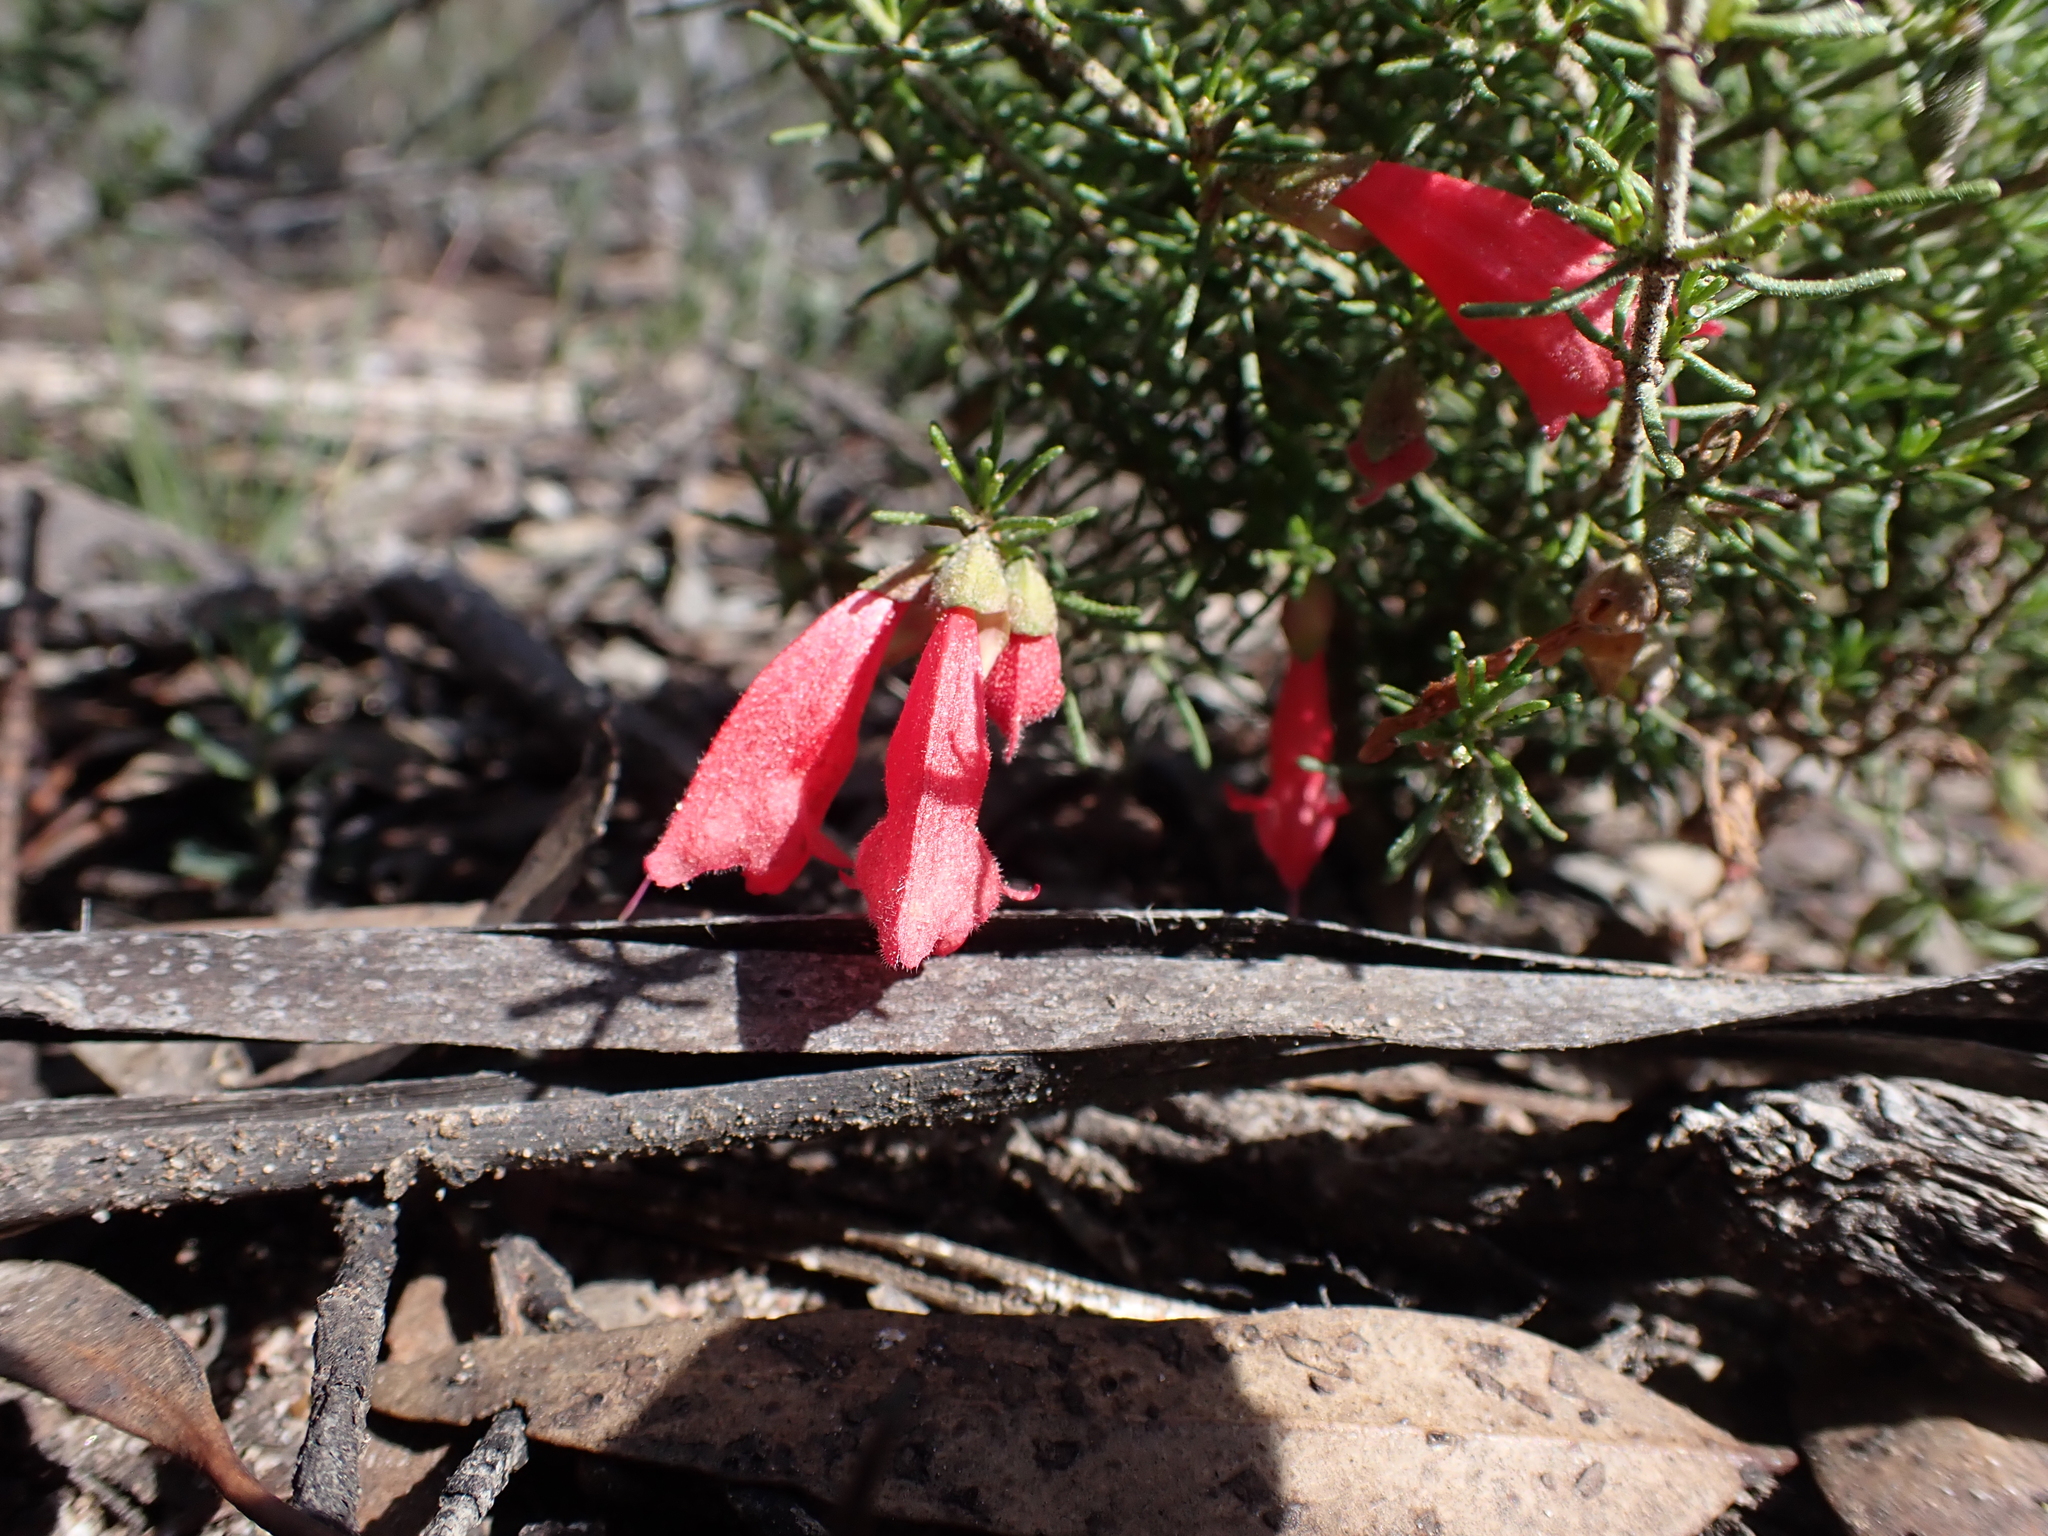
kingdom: Plantae
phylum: Tracheophyta
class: Magnoliopsida
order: Lamiales
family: Lamiaceae
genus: Prostanthera
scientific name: Prostanthera aspalathoides
